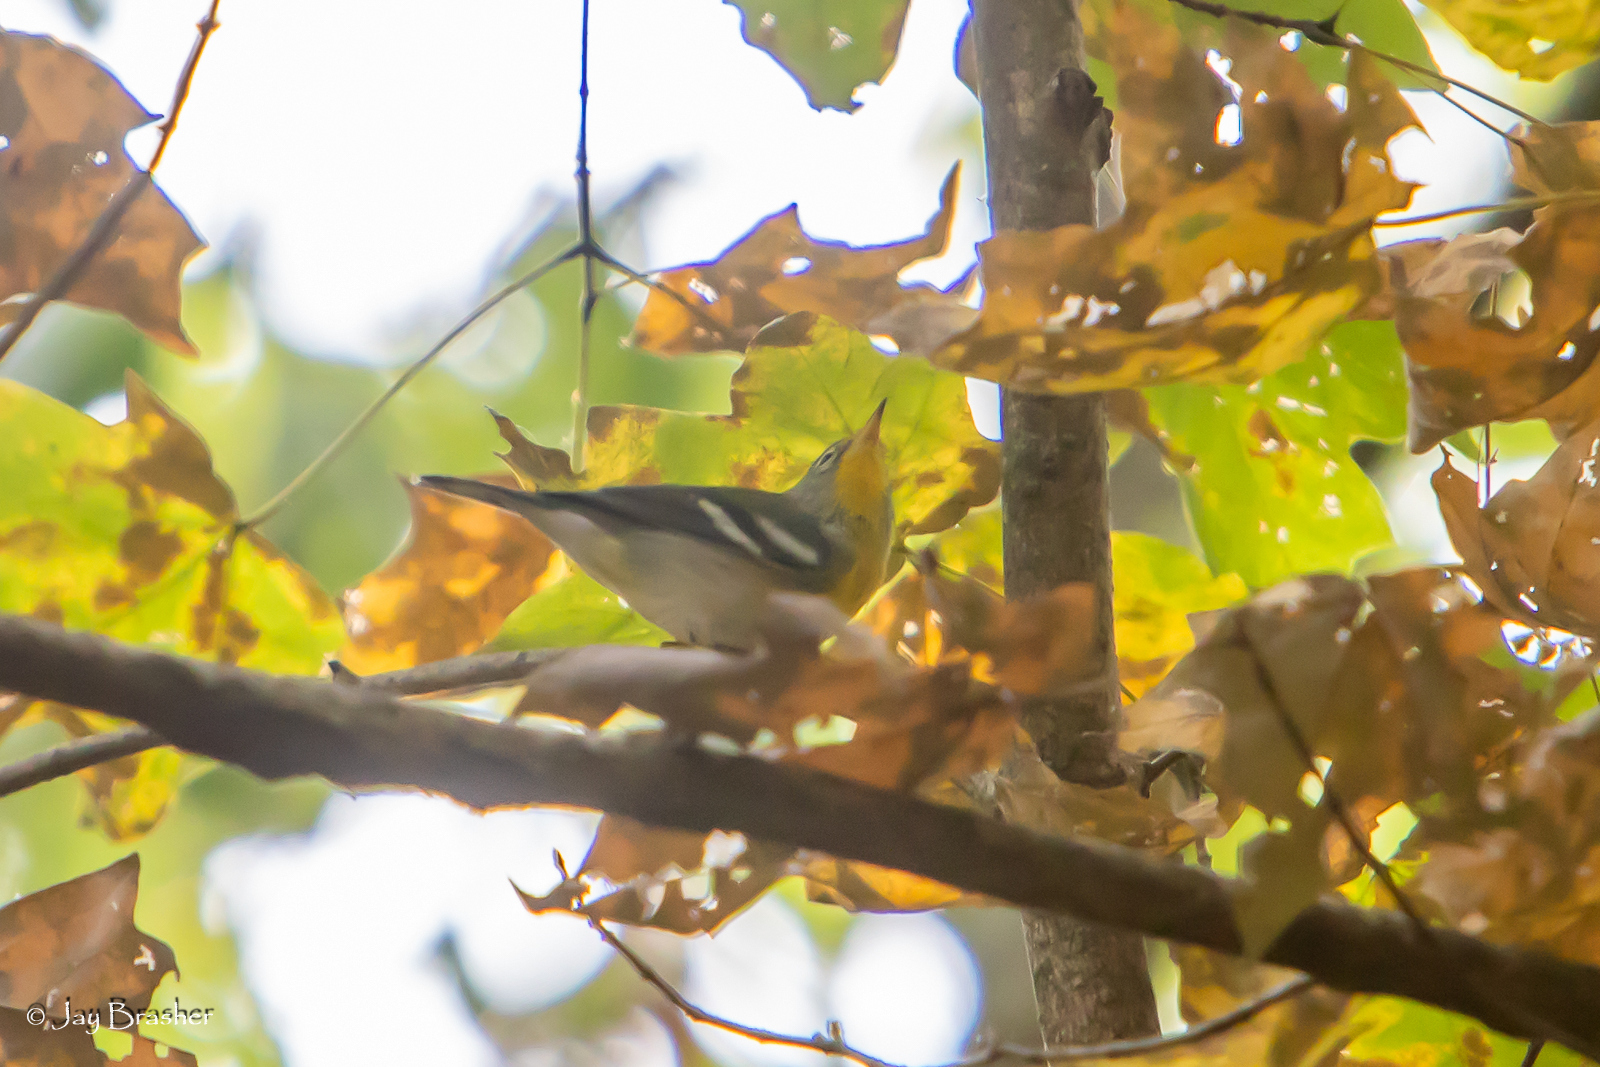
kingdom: Animalia
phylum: Chordata
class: Aves
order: Passeriformes
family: Parulidae
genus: Setophaga
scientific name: Setophaga americana
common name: Northern parula
